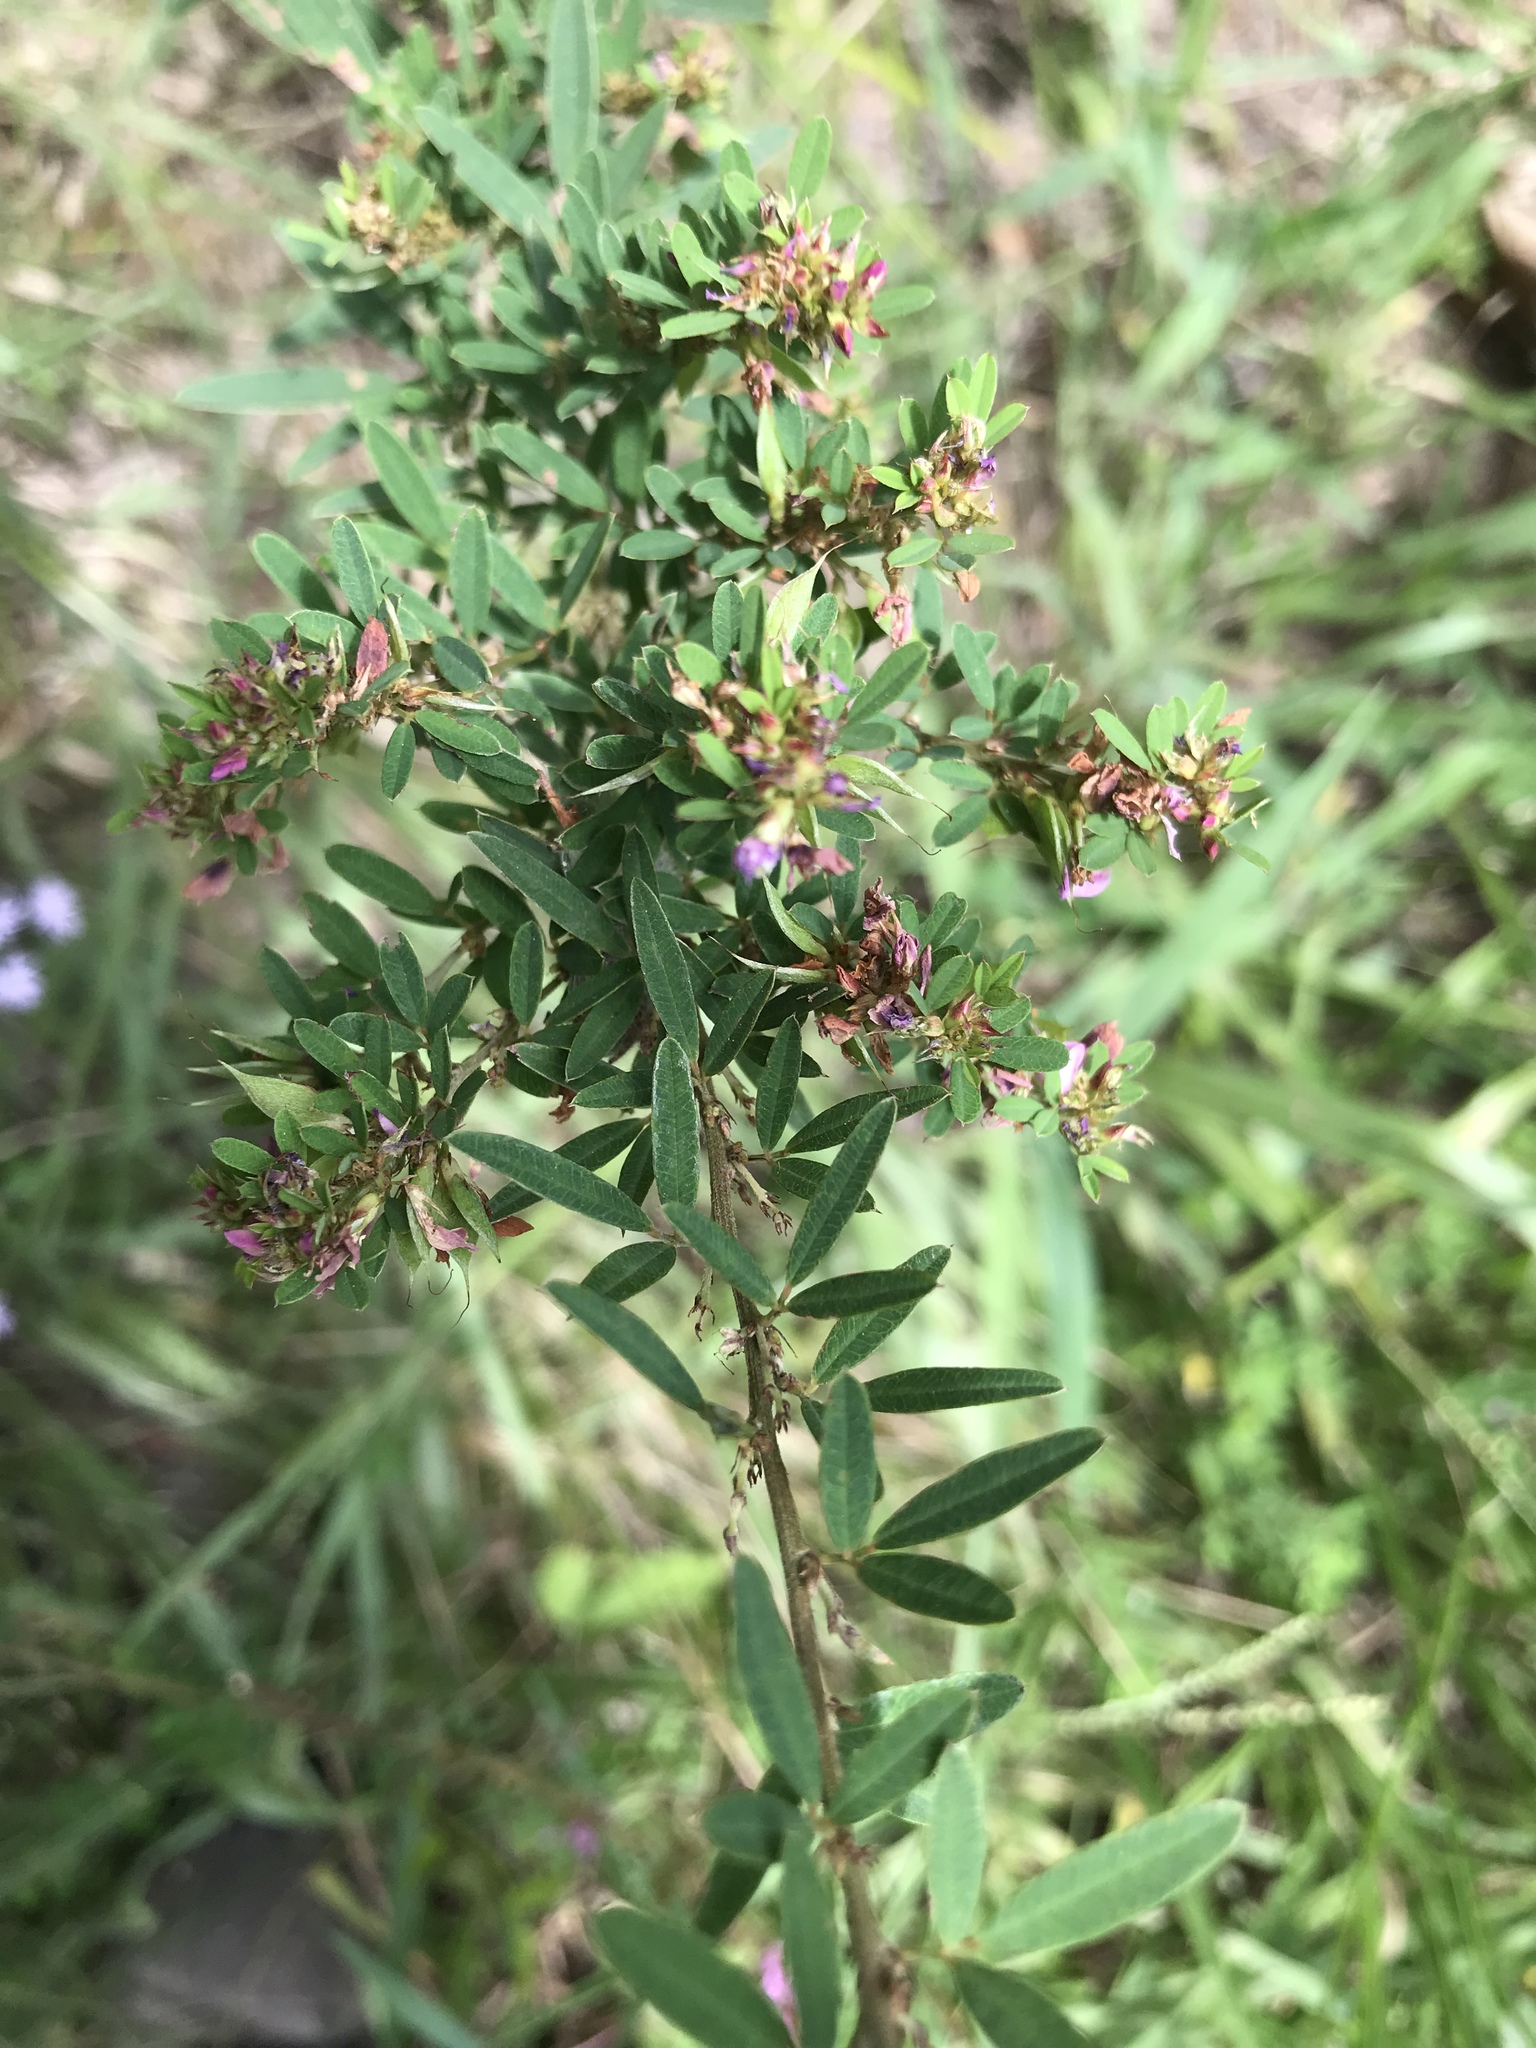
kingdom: Plantae
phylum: Tracheophyta
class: Magnoliopsida
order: Fabales
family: Fabaceae
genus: Lespedeza
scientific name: Lespedeza virginica
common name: Slender bush-clover
